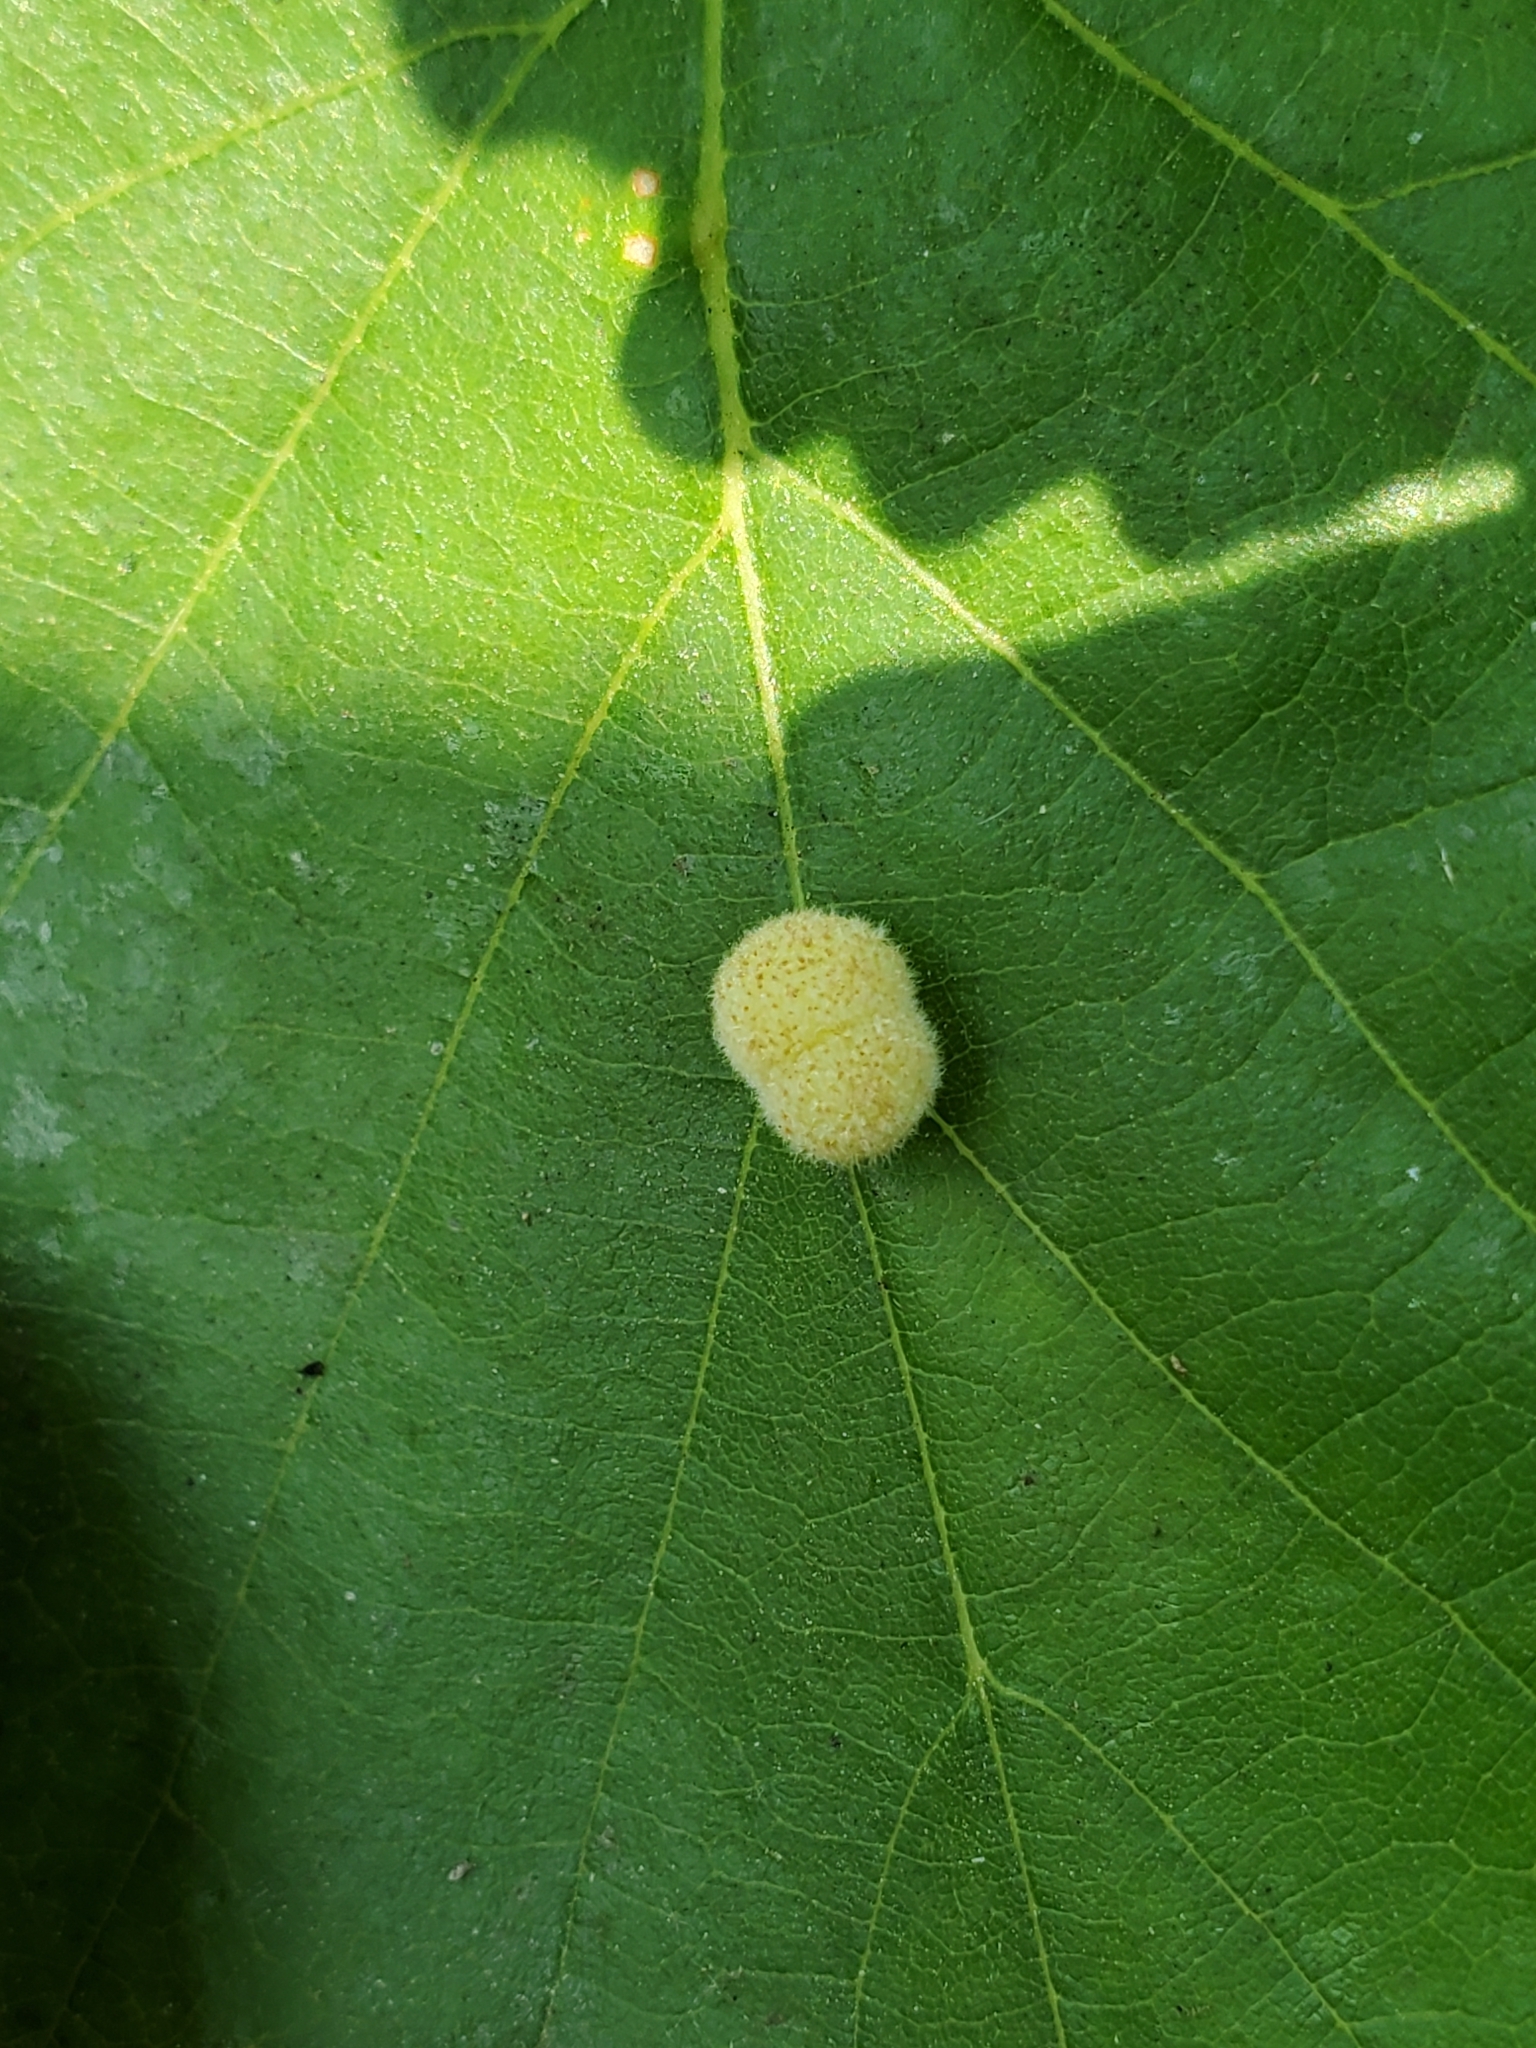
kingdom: Animalia
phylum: Arthropoda
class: Insecta
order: Hymenoptera
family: Cynipidae
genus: Philonix
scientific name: Philonix fulvicollis
